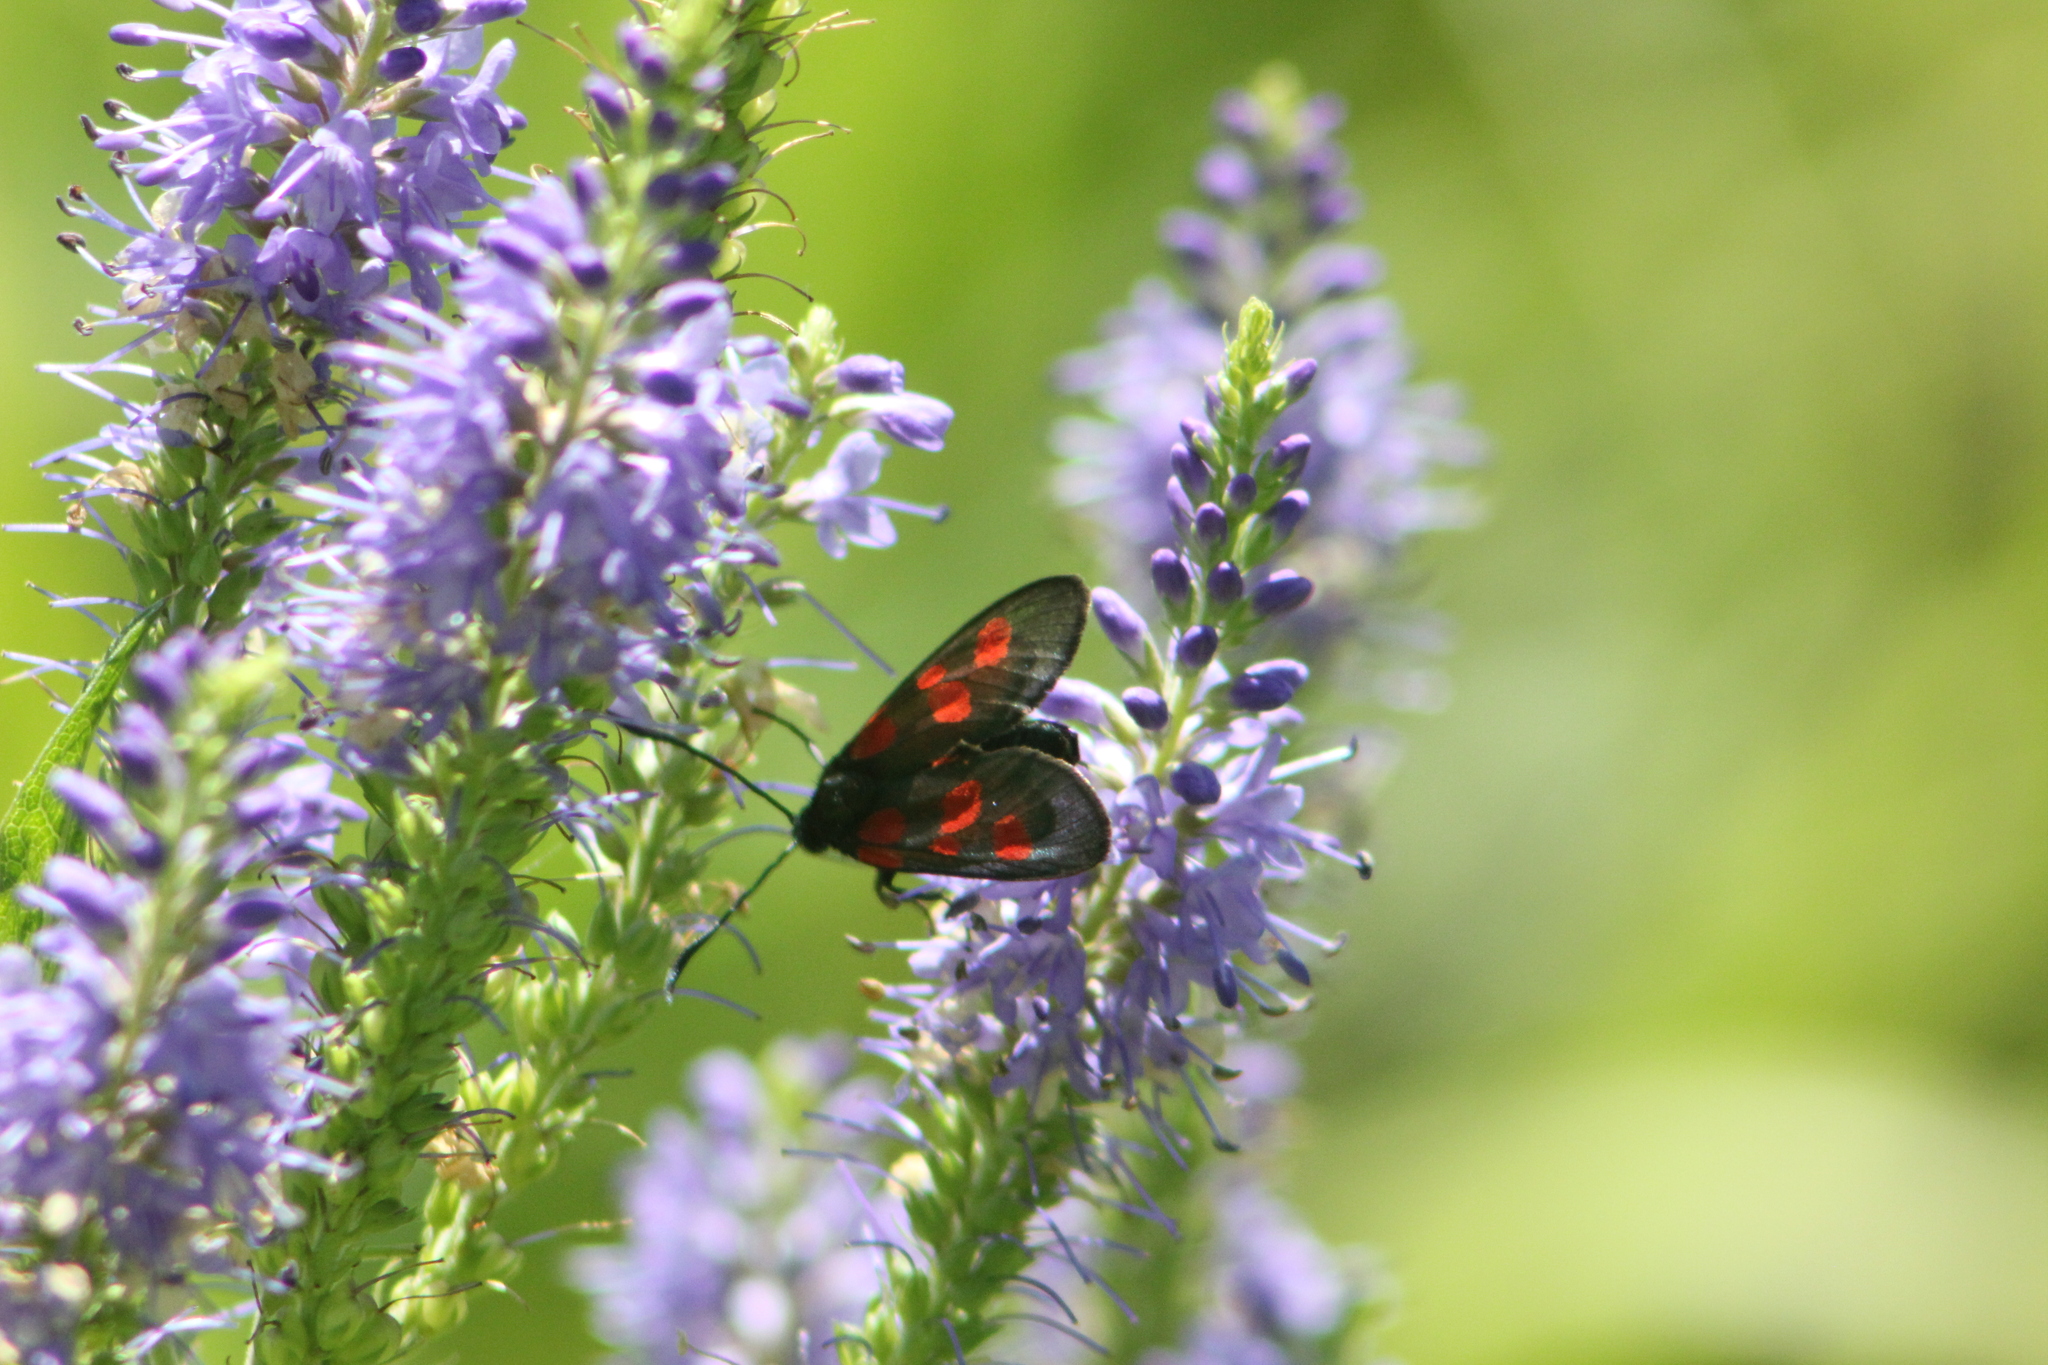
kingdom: Animalia
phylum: Arthropoda
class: Insecta
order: Lepidoptera
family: Zygaenidae
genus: Zygaena
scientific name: Zygaena viciae
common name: New forest burnet
